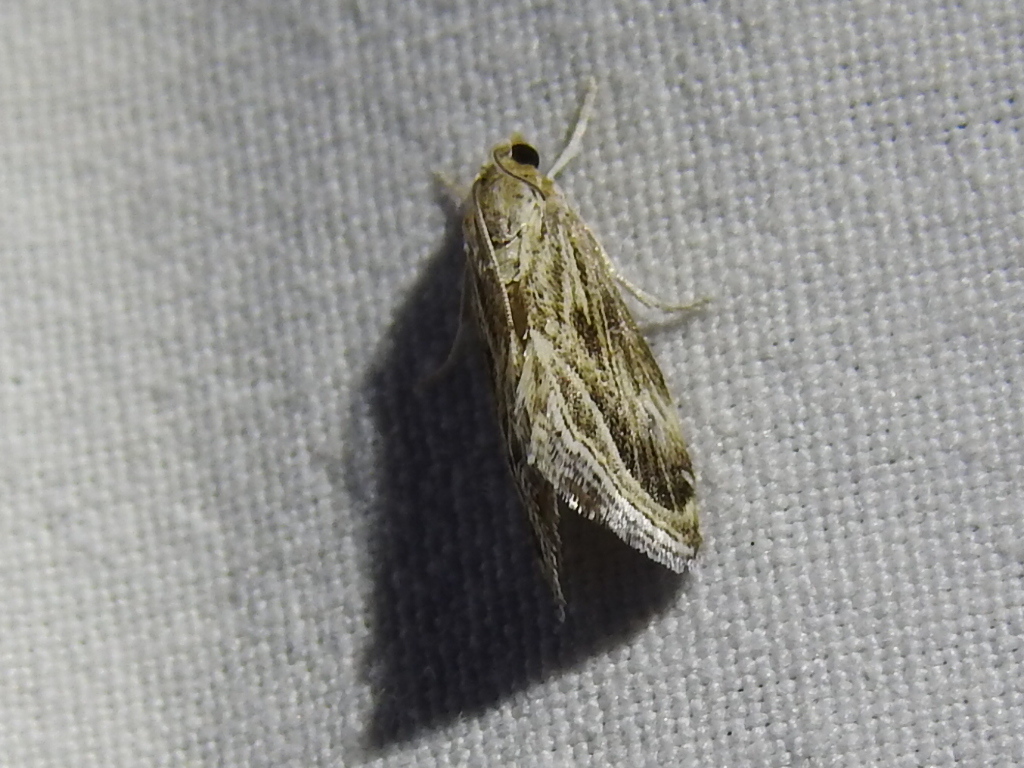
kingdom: Animalia
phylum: Arthropoda
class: Insecta
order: Lepidoptera
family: Crambidae
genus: Frechinia
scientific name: Frechinia helianthiales
